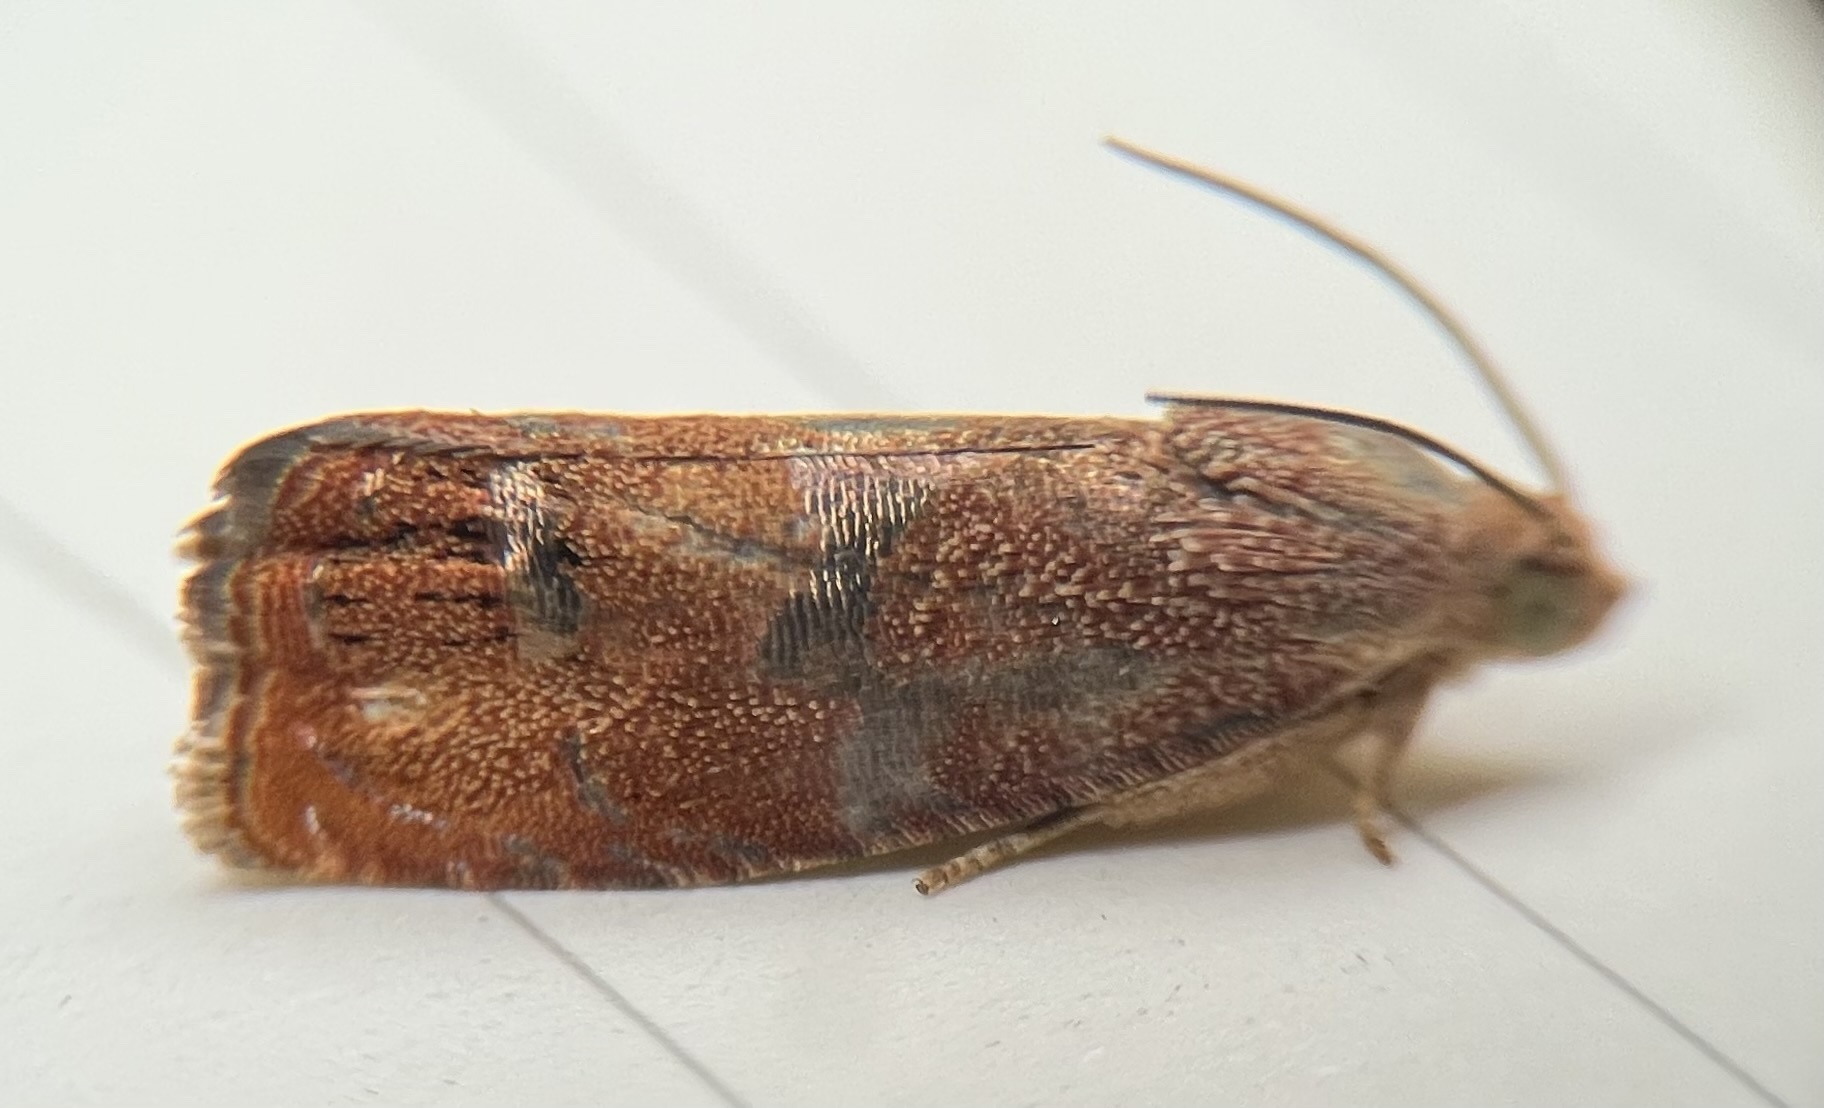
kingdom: Animalia
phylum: Arthropoda
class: Insecta
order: Lepidoptera
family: Tortricidae
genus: Cydia
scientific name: Cydia latiferreana
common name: Filbertworm moth
